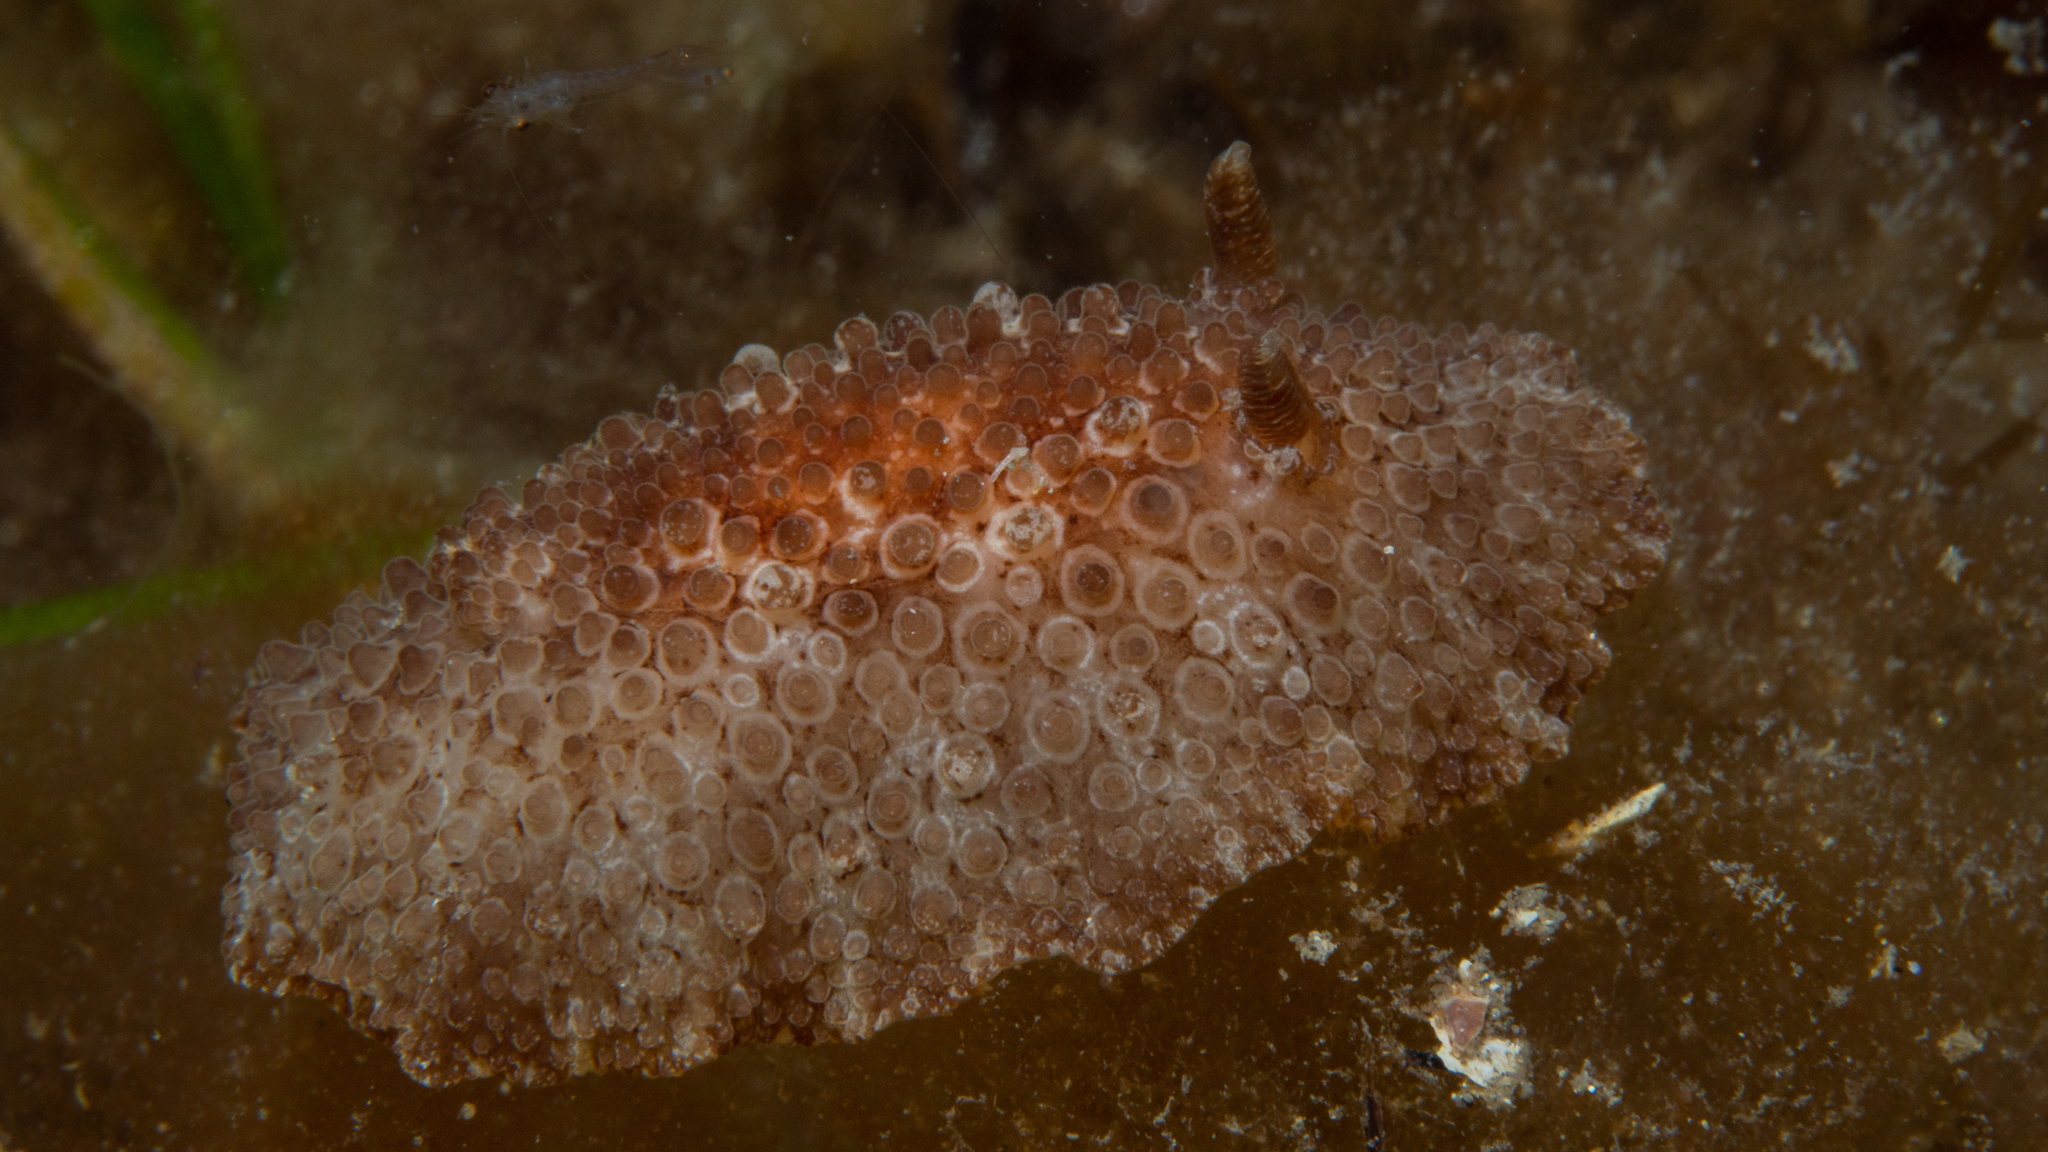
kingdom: Animalia
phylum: Mollusca
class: Gastropoda
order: Nudibranchia
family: Discodorididae
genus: Carminodoris
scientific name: Carminodoris nodulosa
